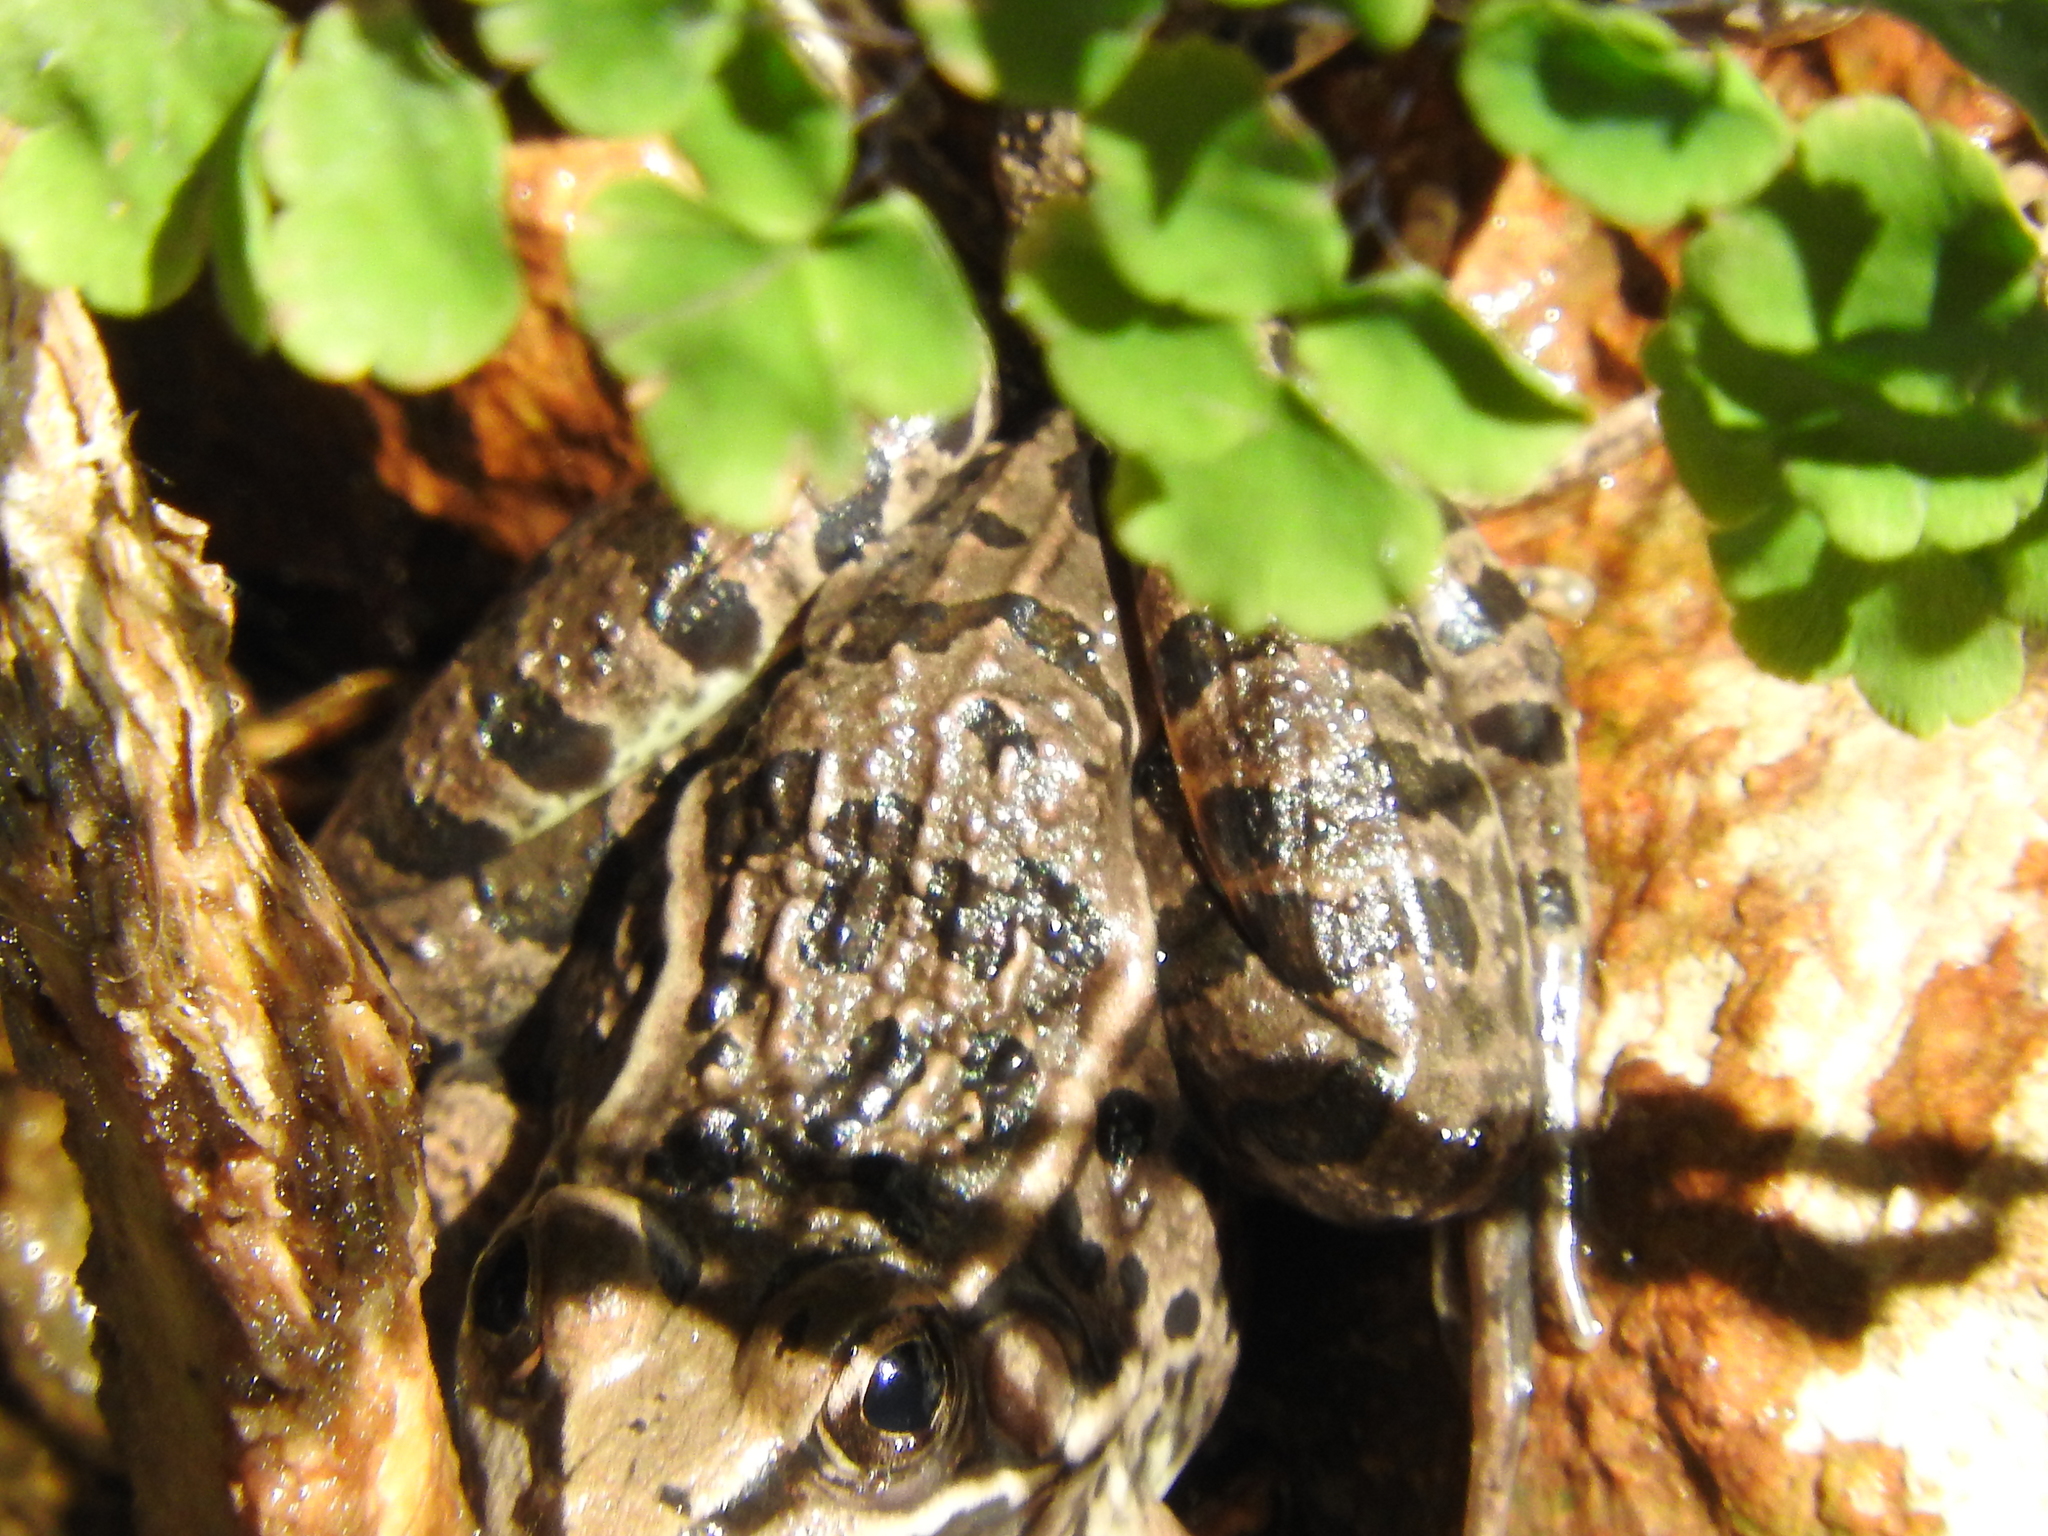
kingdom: Animalia
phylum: Chordata
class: Amphibia
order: Anura
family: Ranidae
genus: Lithobates
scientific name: Lithobates neovolcanicus
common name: Transverse volcanic leopard frog
